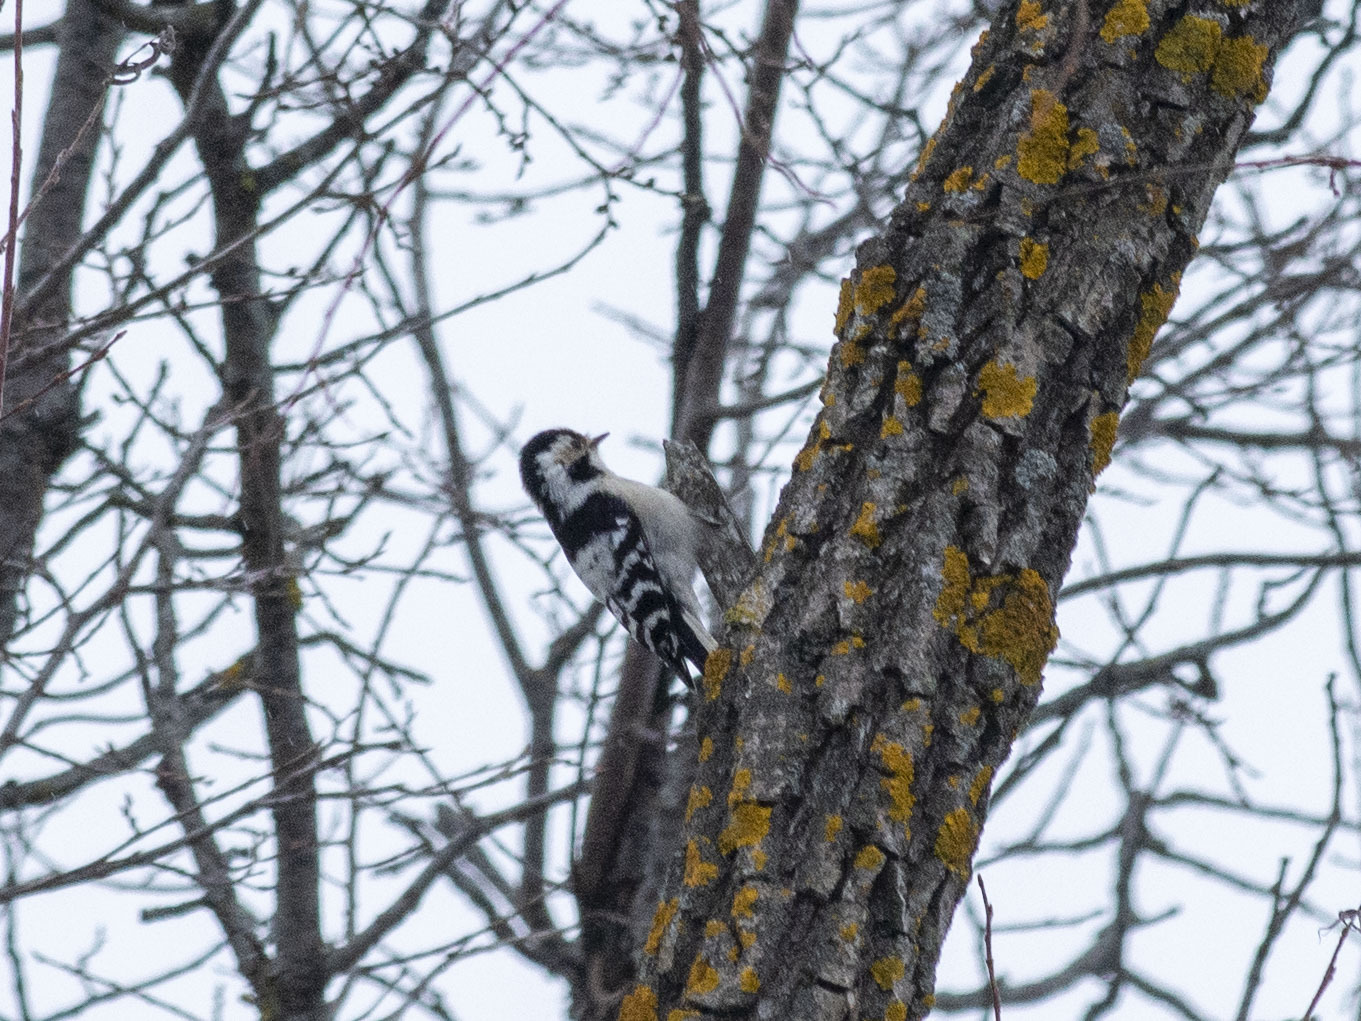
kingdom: Animalia
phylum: Chordata
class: Aves
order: Piciformes
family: Picidae
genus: Dryobates
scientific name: Dryobates minor
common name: Lesser spotted woodpecker
